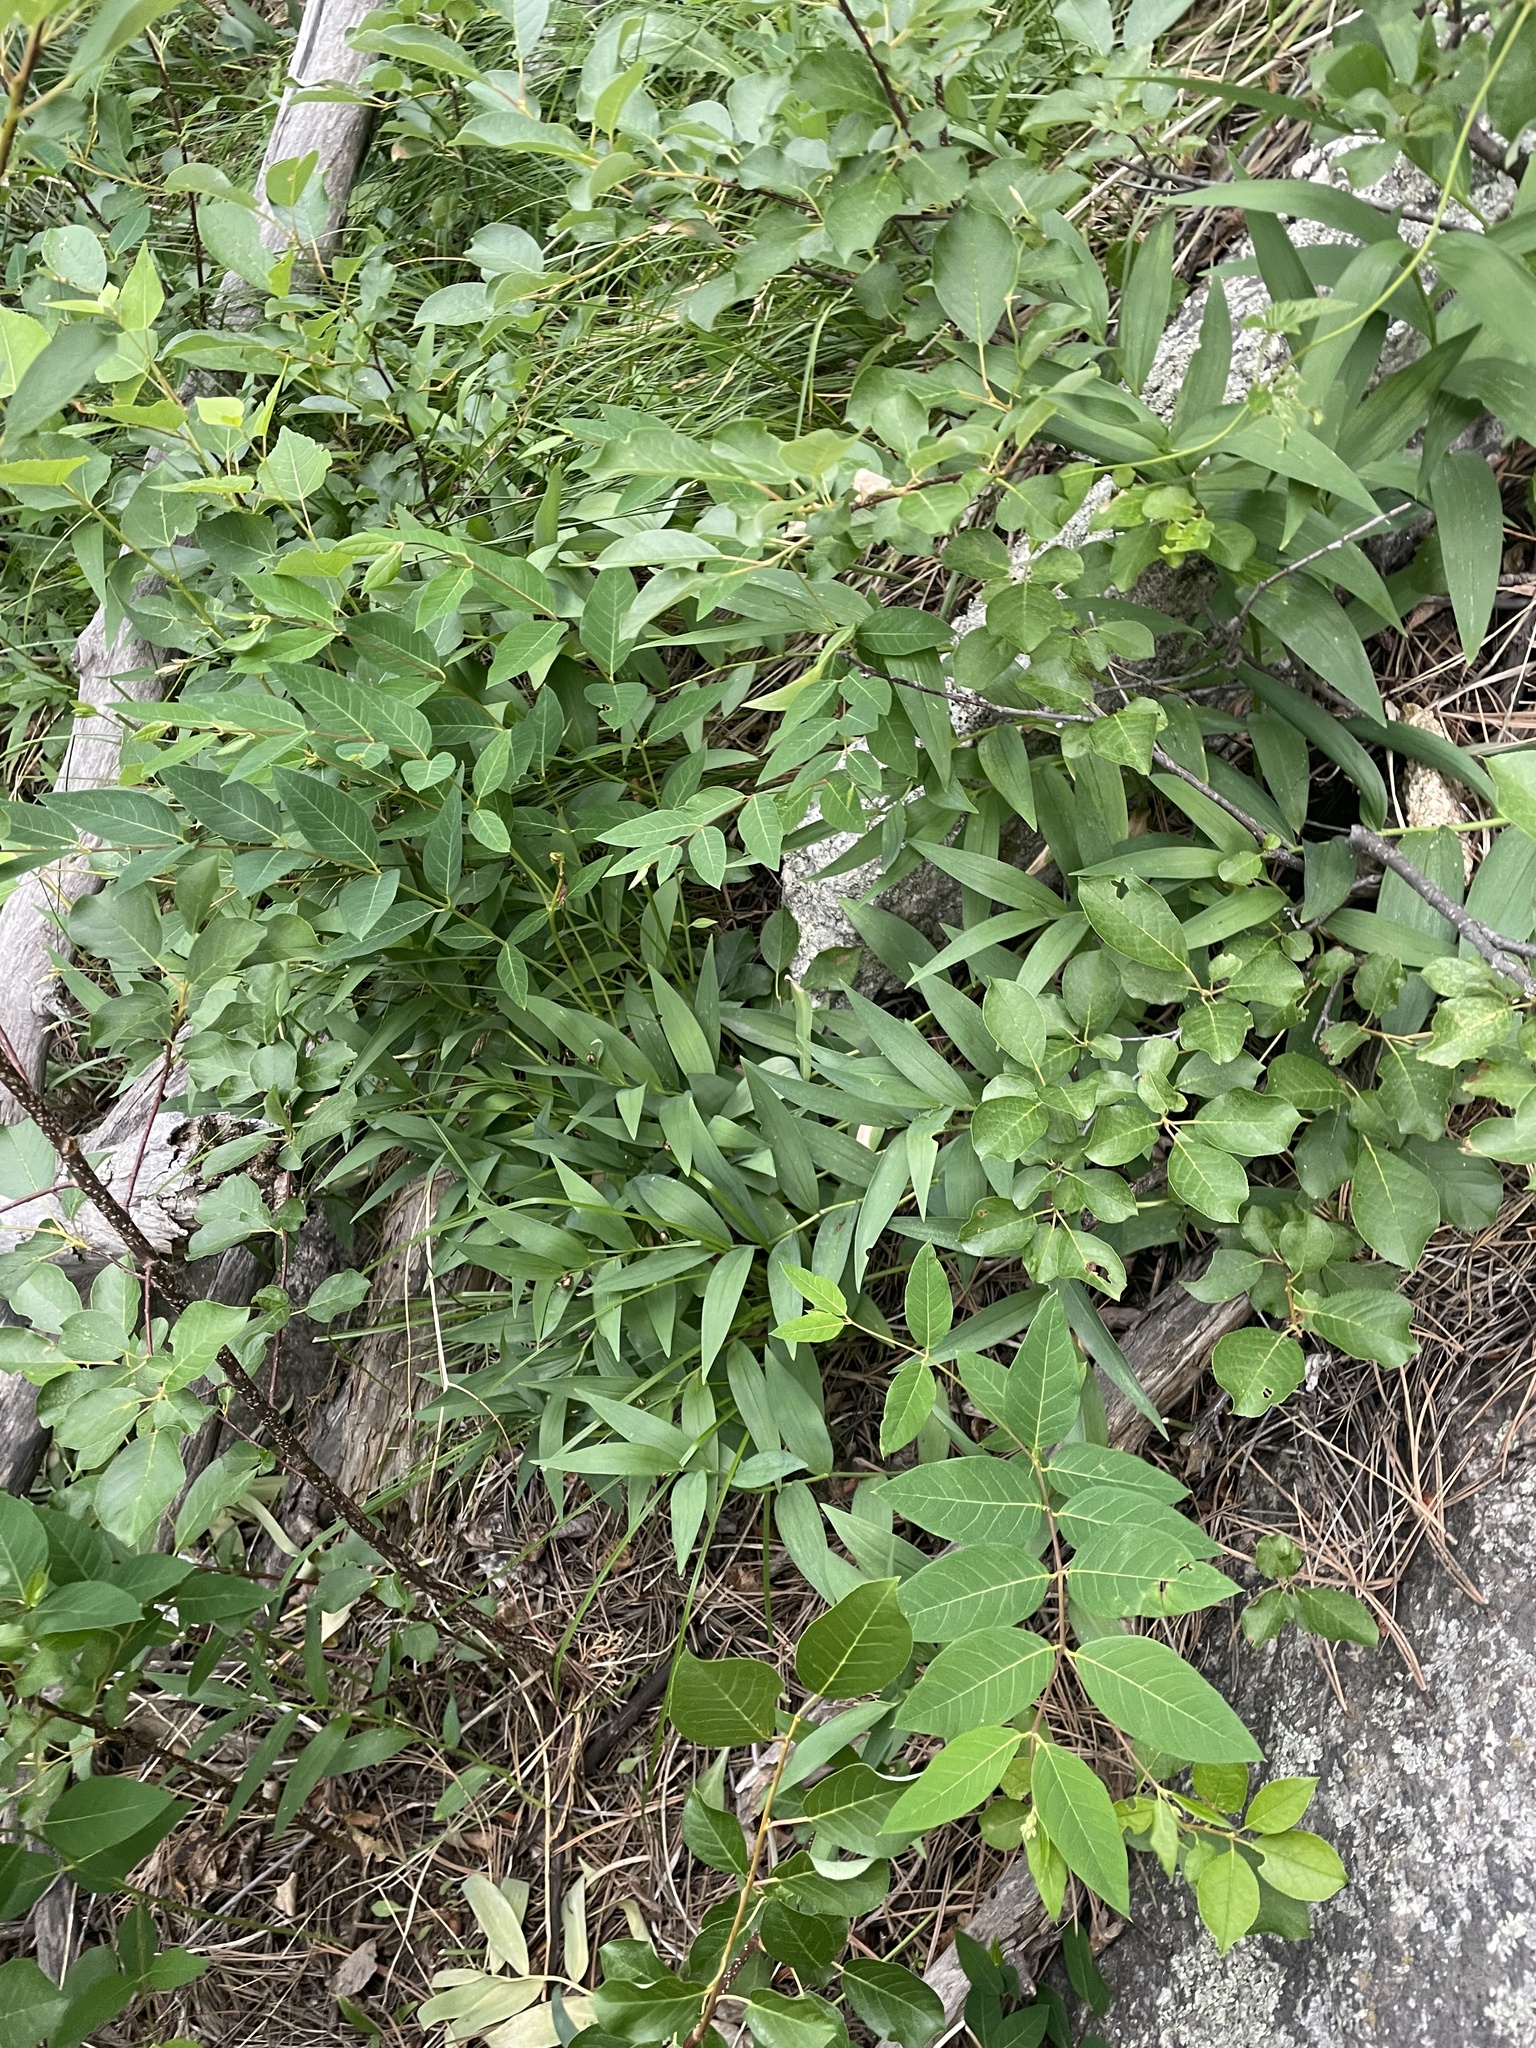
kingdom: Plantae
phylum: Tracheophyta
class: Liliopsida
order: Asparagales
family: Asparagaceae
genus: Maianthemum
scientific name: Maianthemum stellatum
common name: Little false solomon's seal
